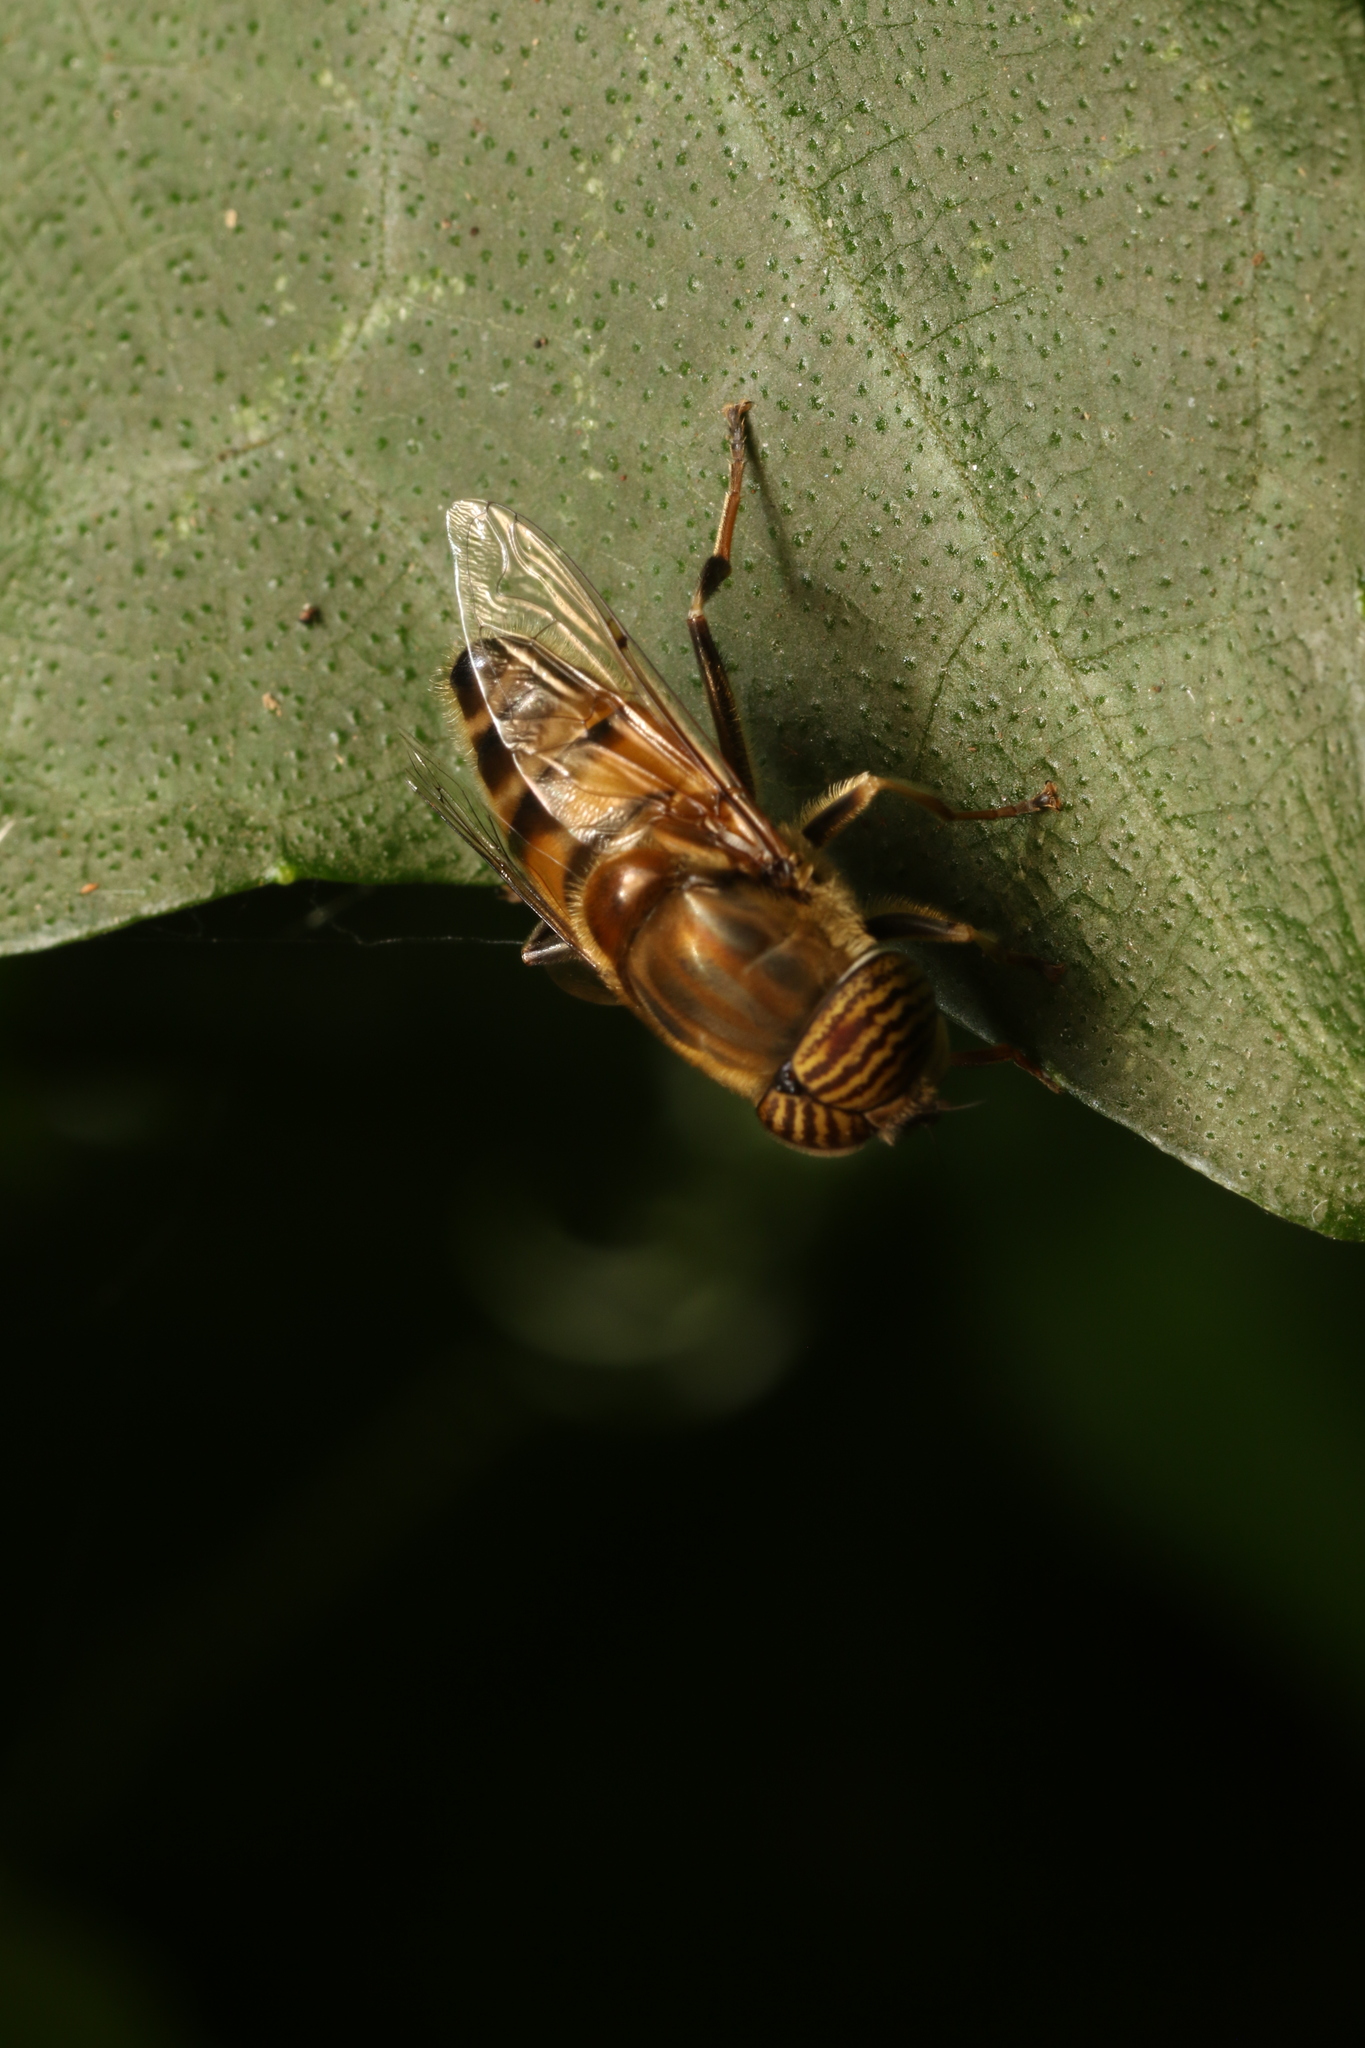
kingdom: Animalia
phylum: Arthropoda
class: Insecta
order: Diptera
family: Syrphidae
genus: Eristalinus
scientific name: Eristalinus taeniops
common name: Syrphid fly
